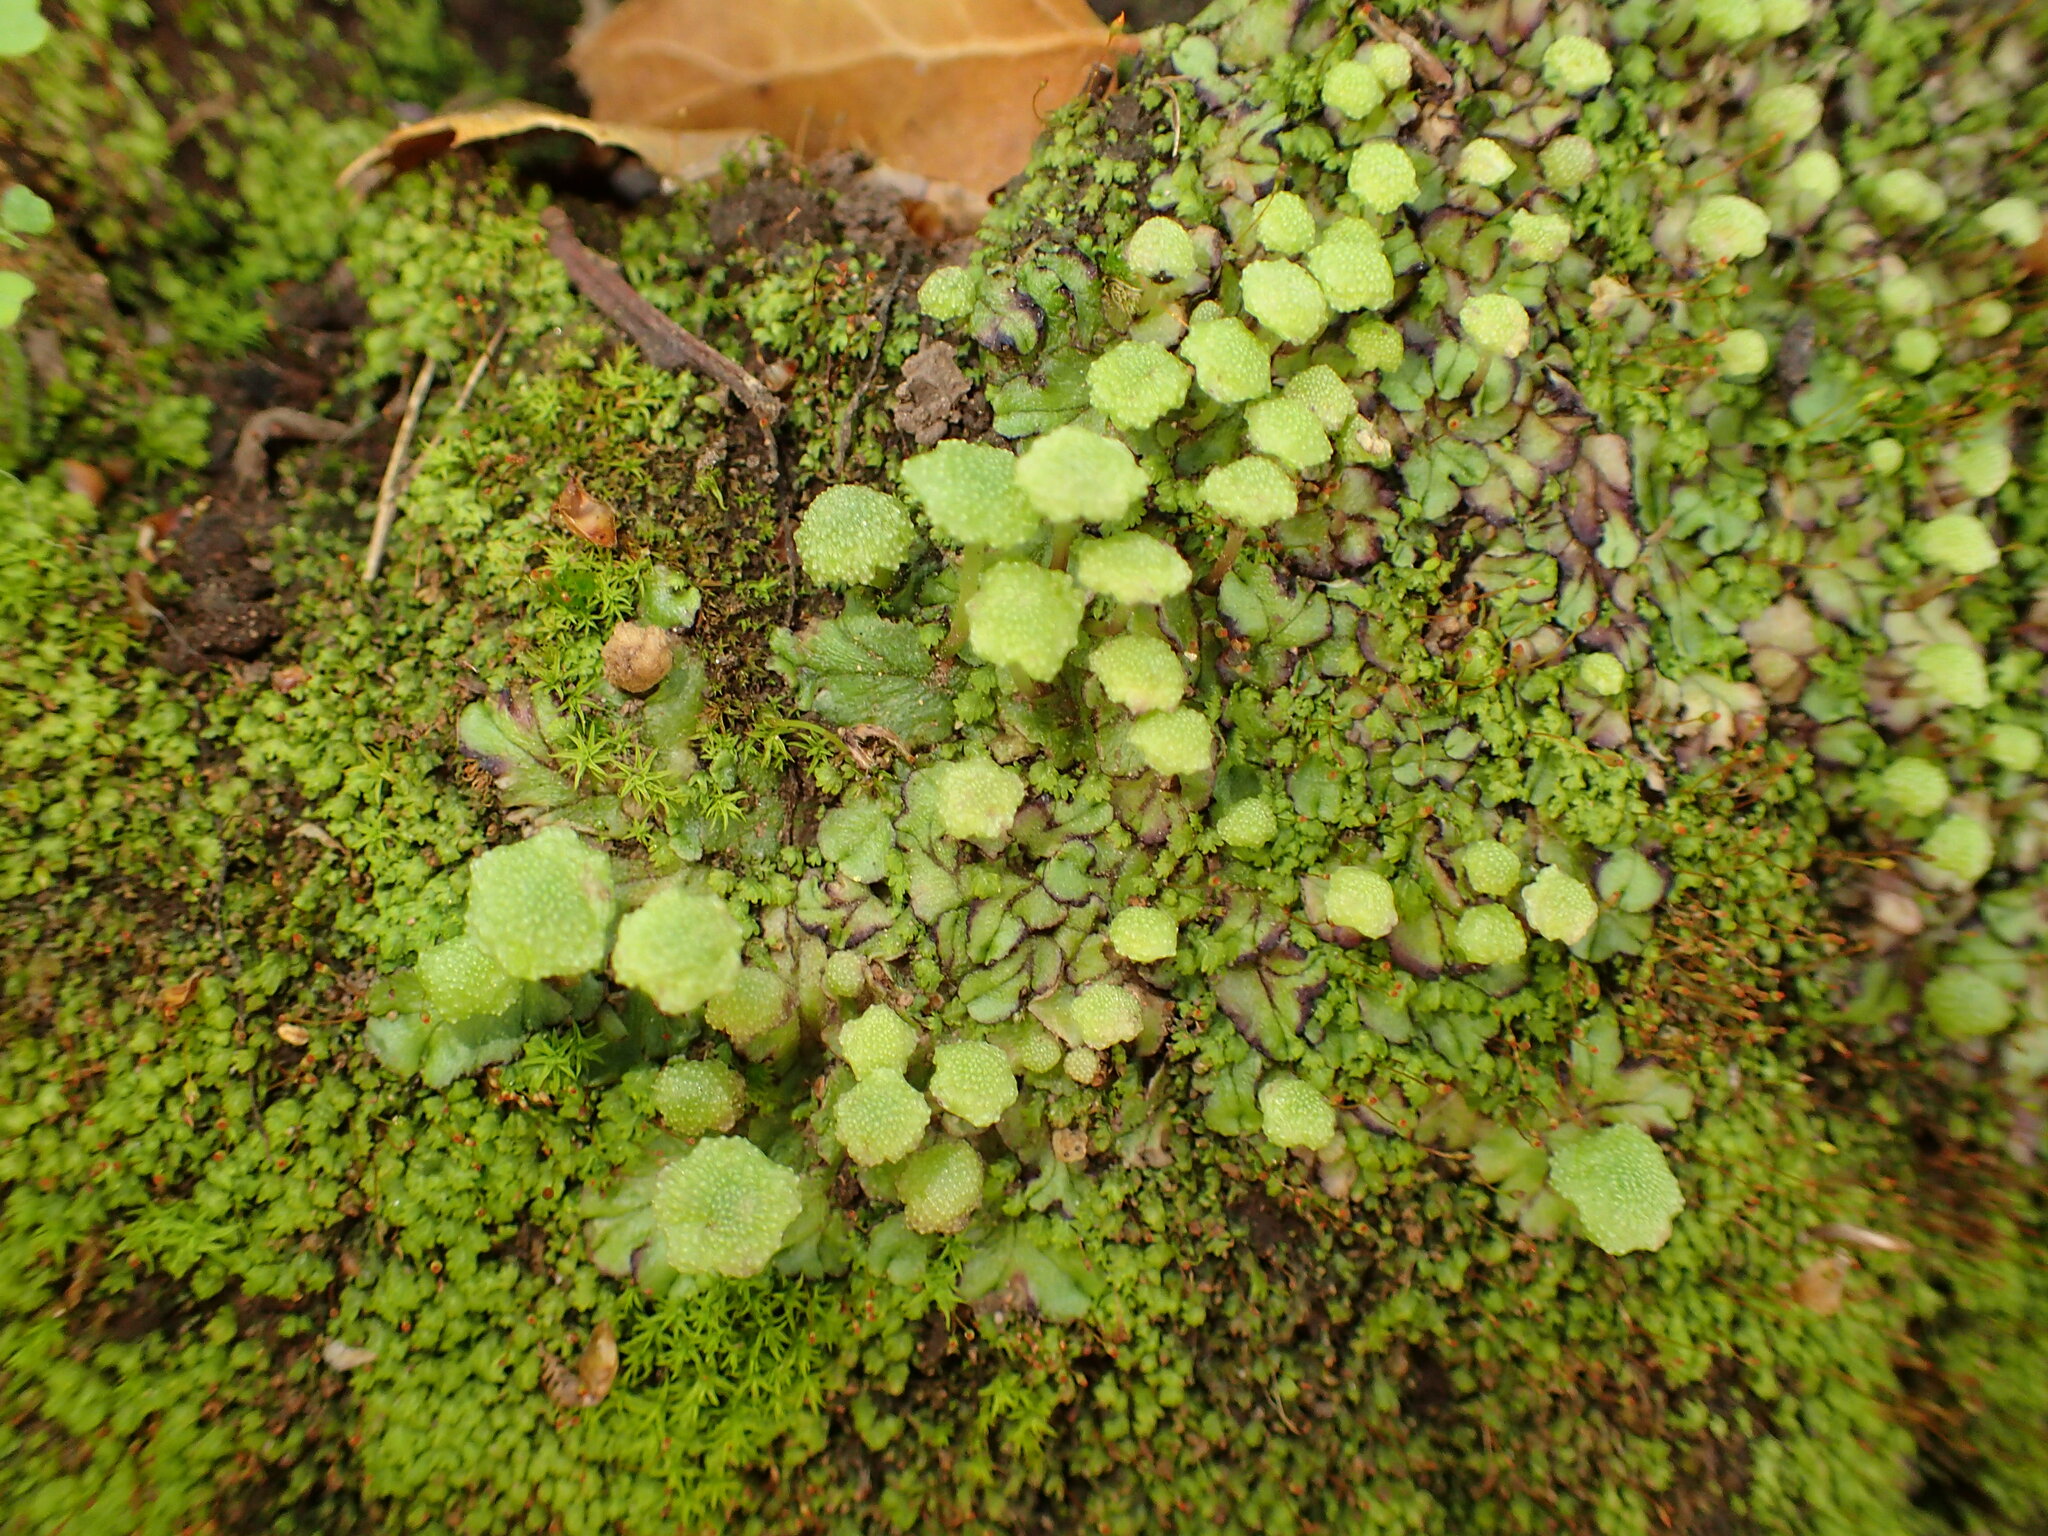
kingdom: Plantae
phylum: Marchantiophyta
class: Marchantiopsida
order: Marchantiales
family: Aytoniaceae
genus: Cryptomitrium
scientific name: Cryptomitrium tenerum
